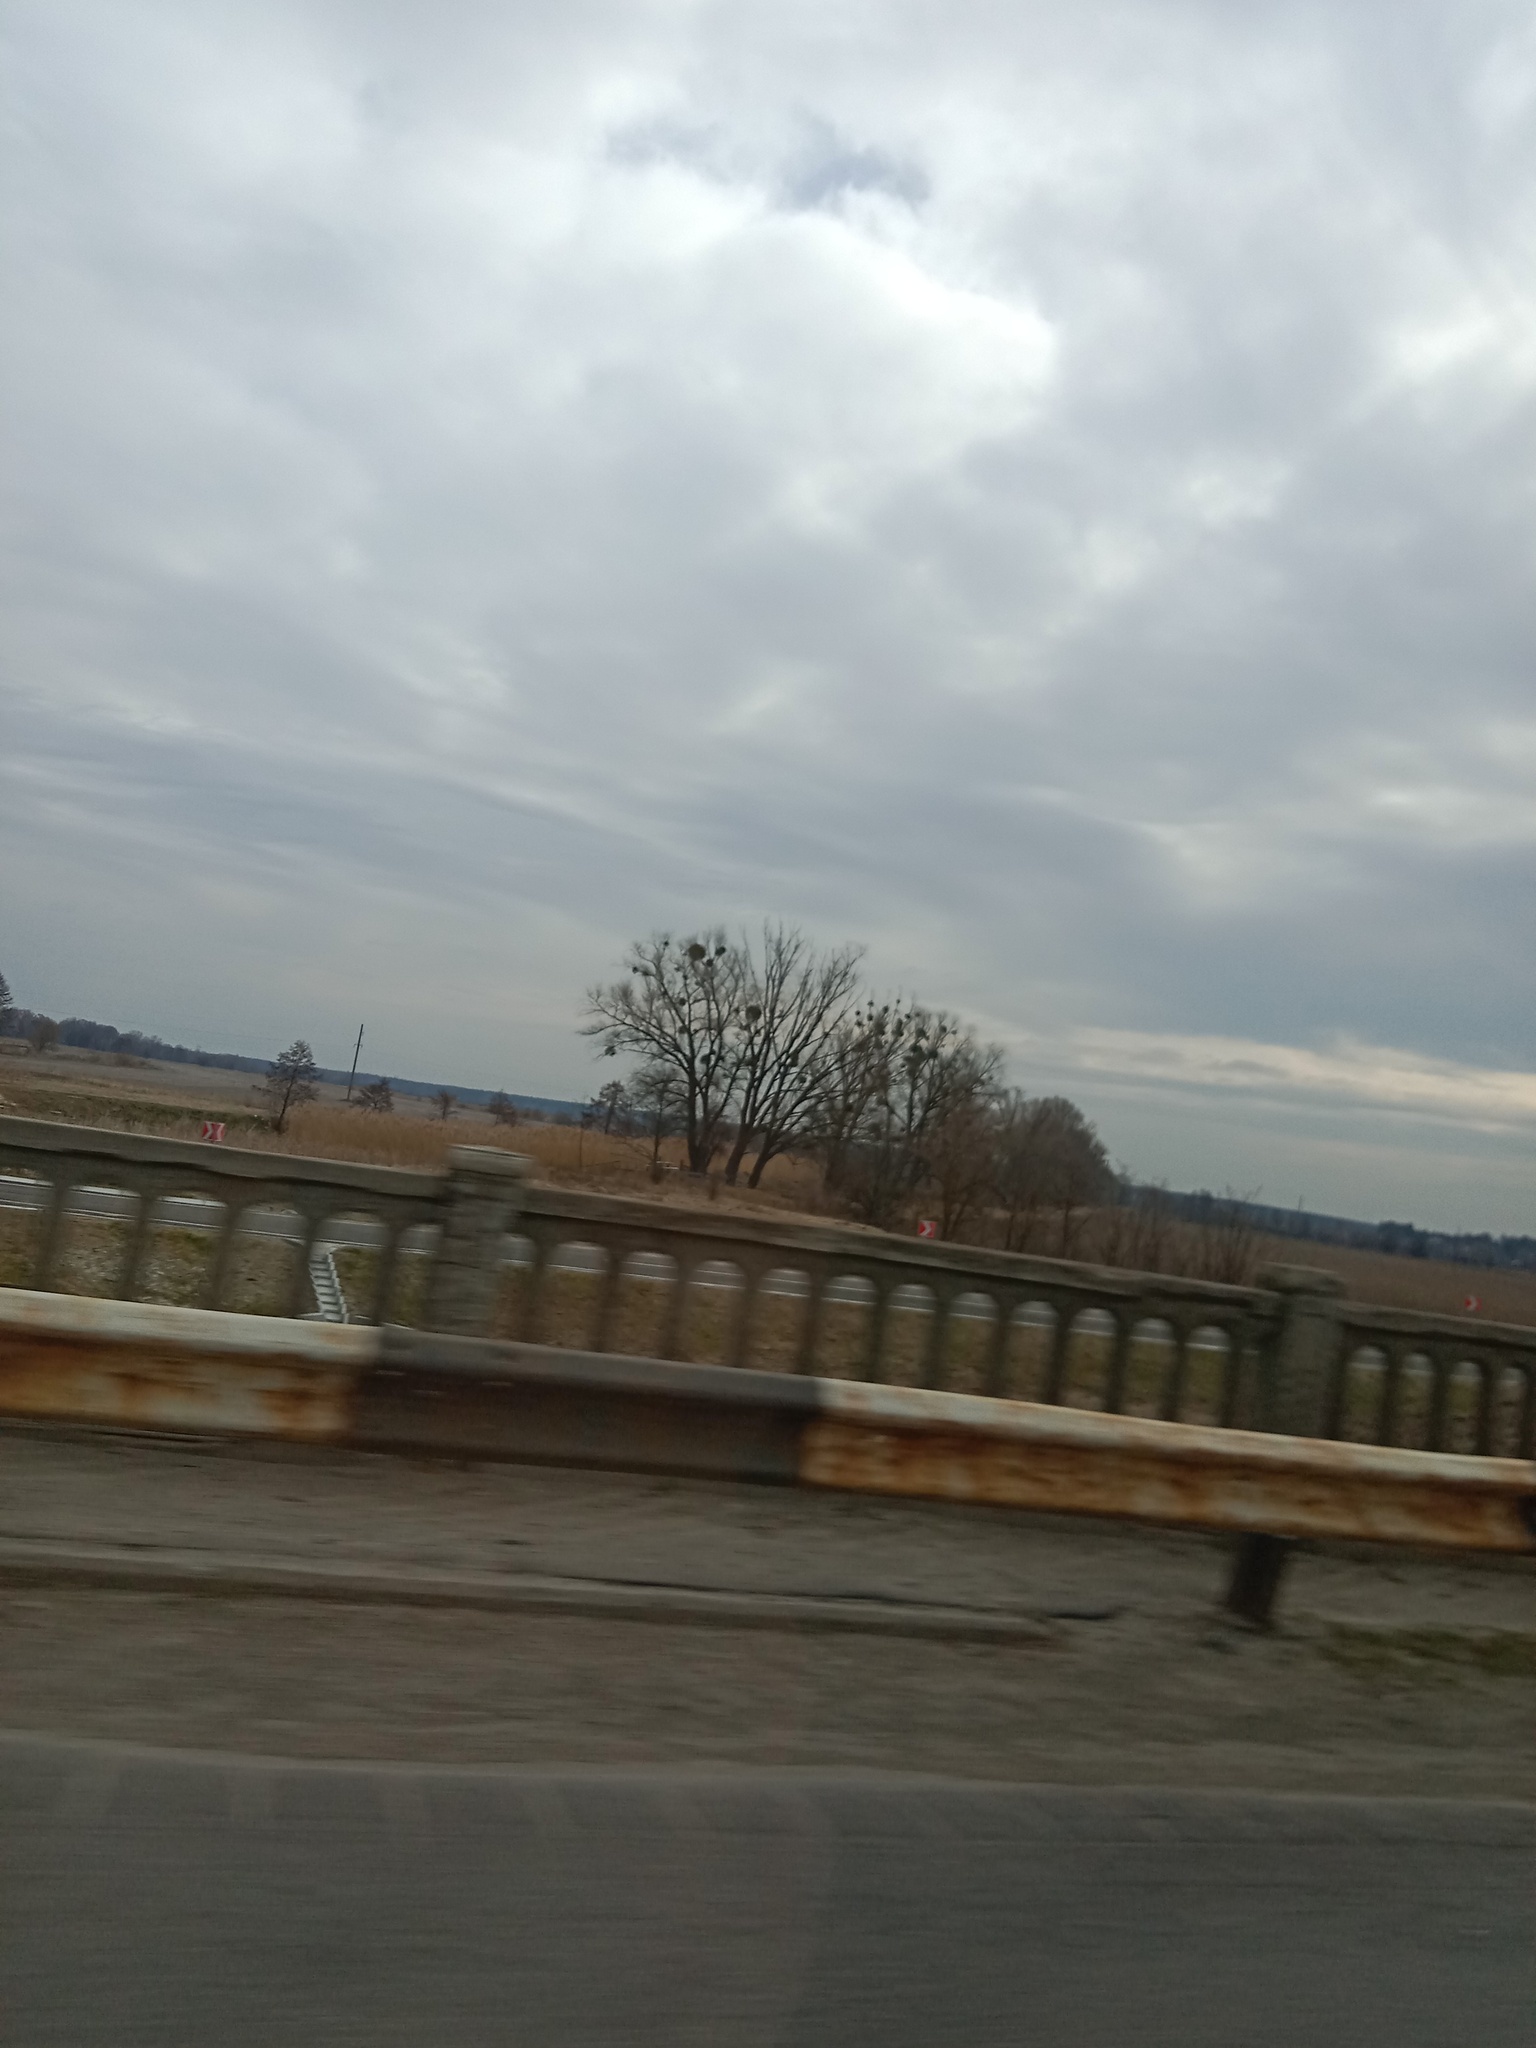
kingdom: Plantae
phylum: Tracheophyta
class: Magnoliopsida
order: Santalales
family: Viscaceae
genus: Viscum
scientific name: Viscum album
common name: Mistletoe
